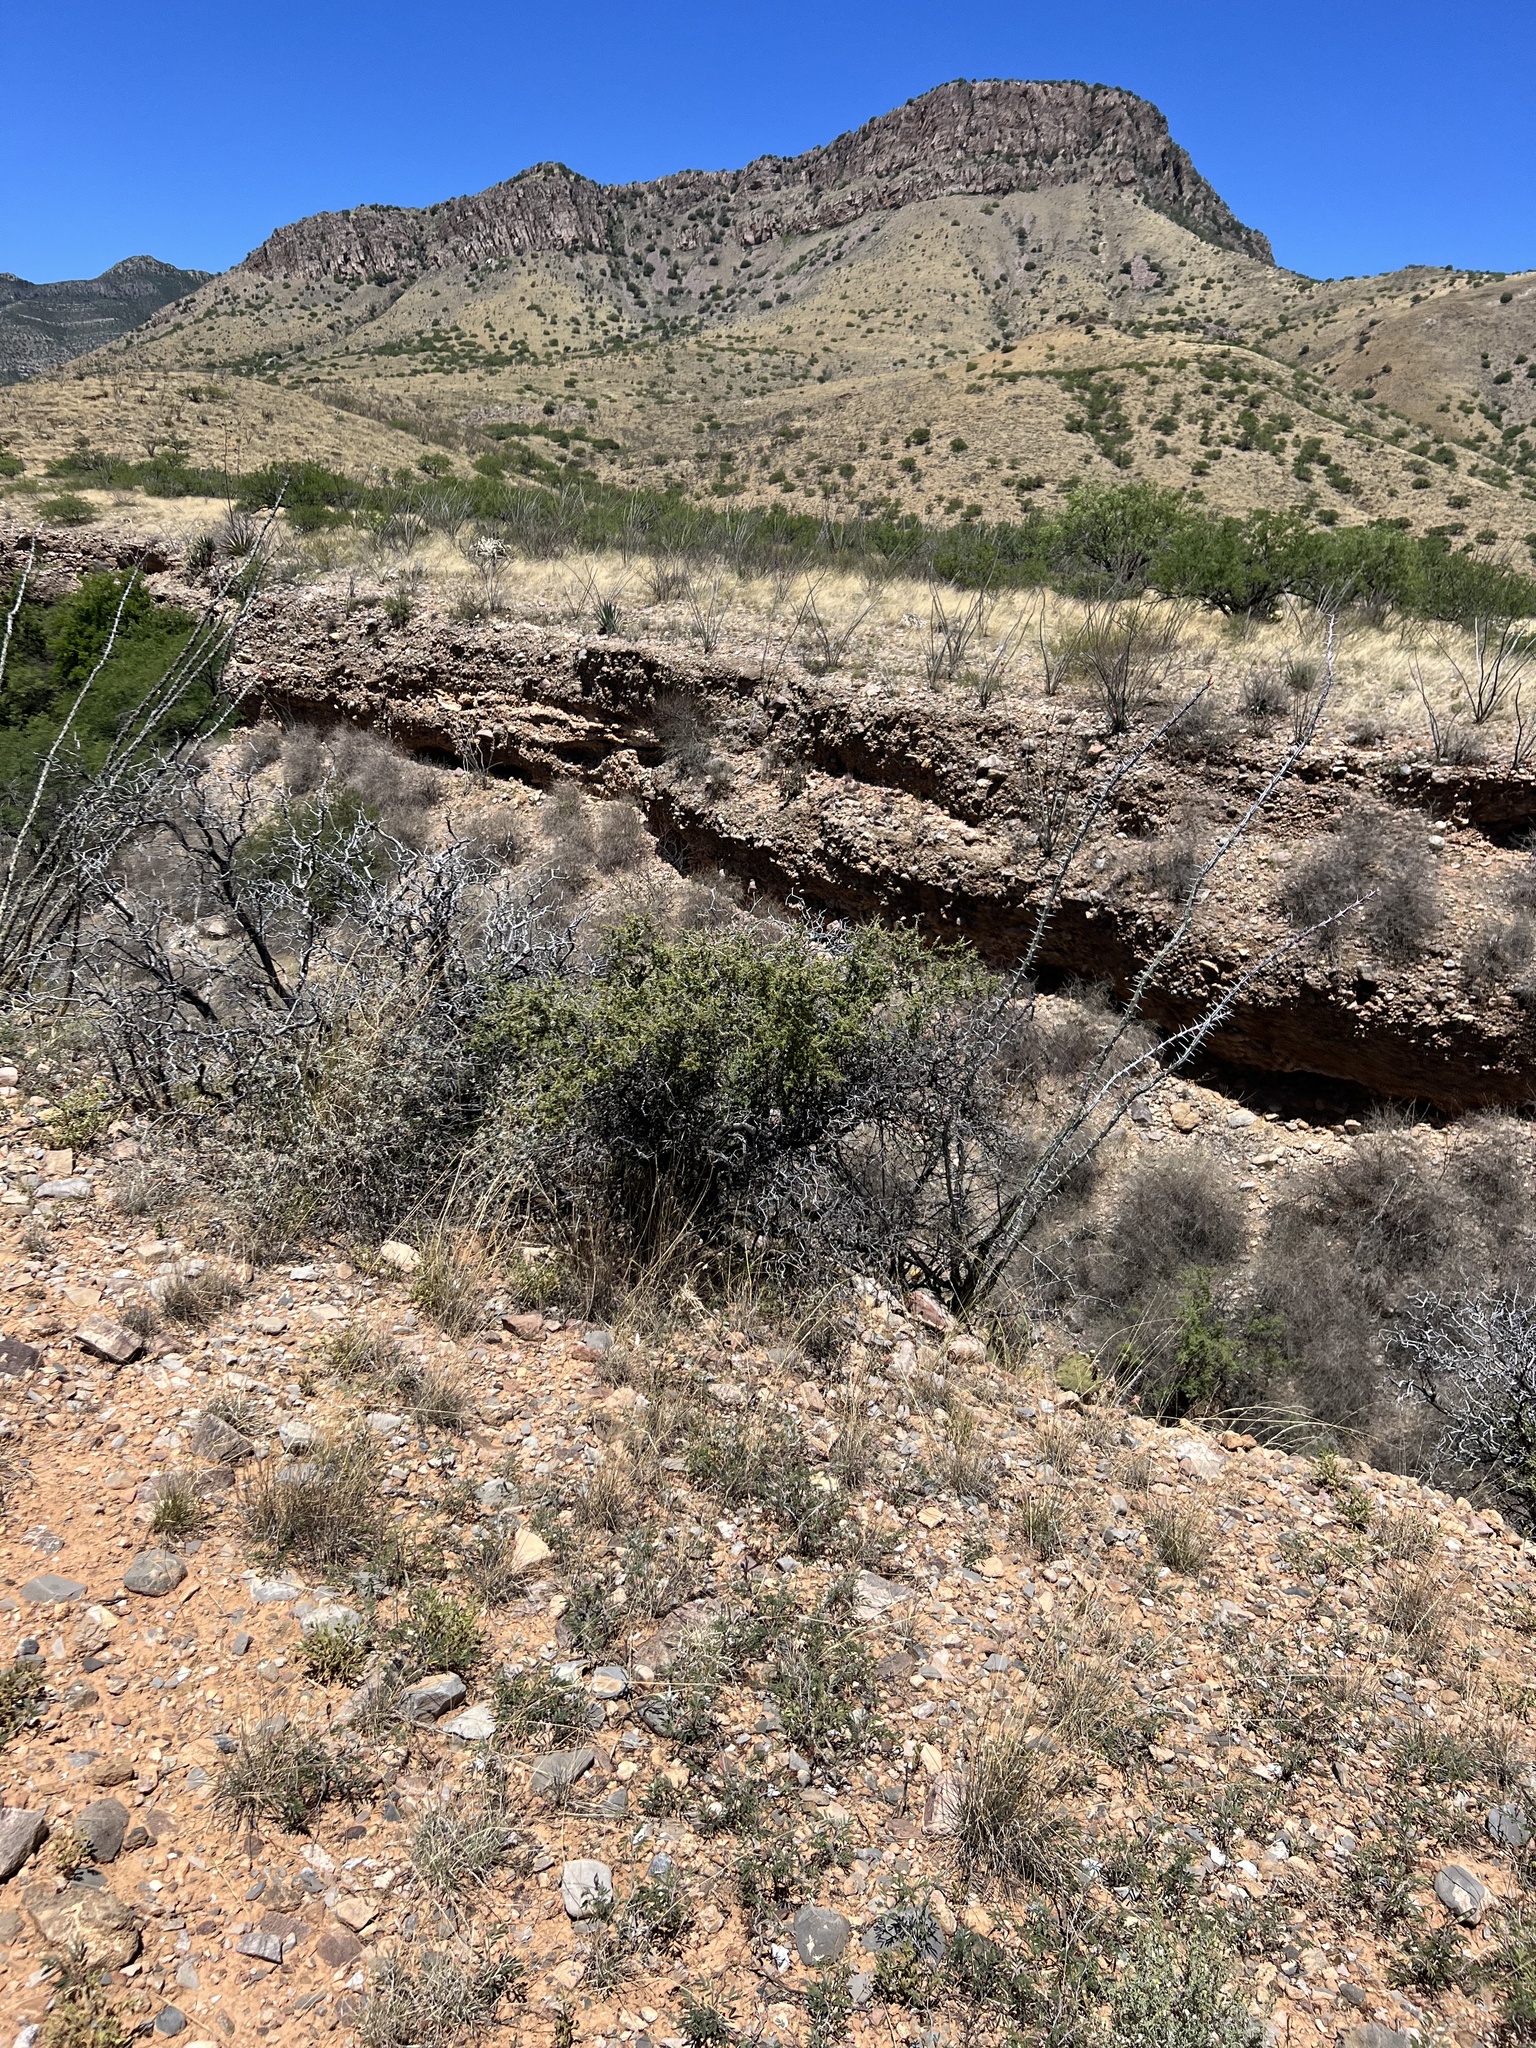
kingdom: Plantae
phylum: Tracheophyta
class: Magnoliopsida
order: Rosales
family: Rhamnaceae
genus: Condalia
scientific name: Condalia warnockii
